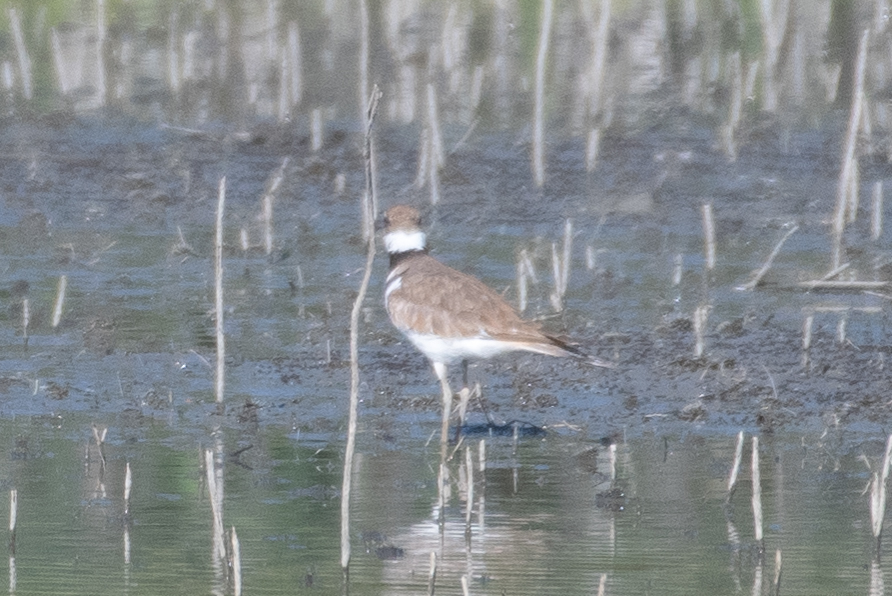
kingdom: Animalia
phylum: Chordata
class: Aves
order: Charadriiformes
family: Charadriidae
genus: Charadrius
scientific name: Charadrius vociferus
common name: Killdeer
